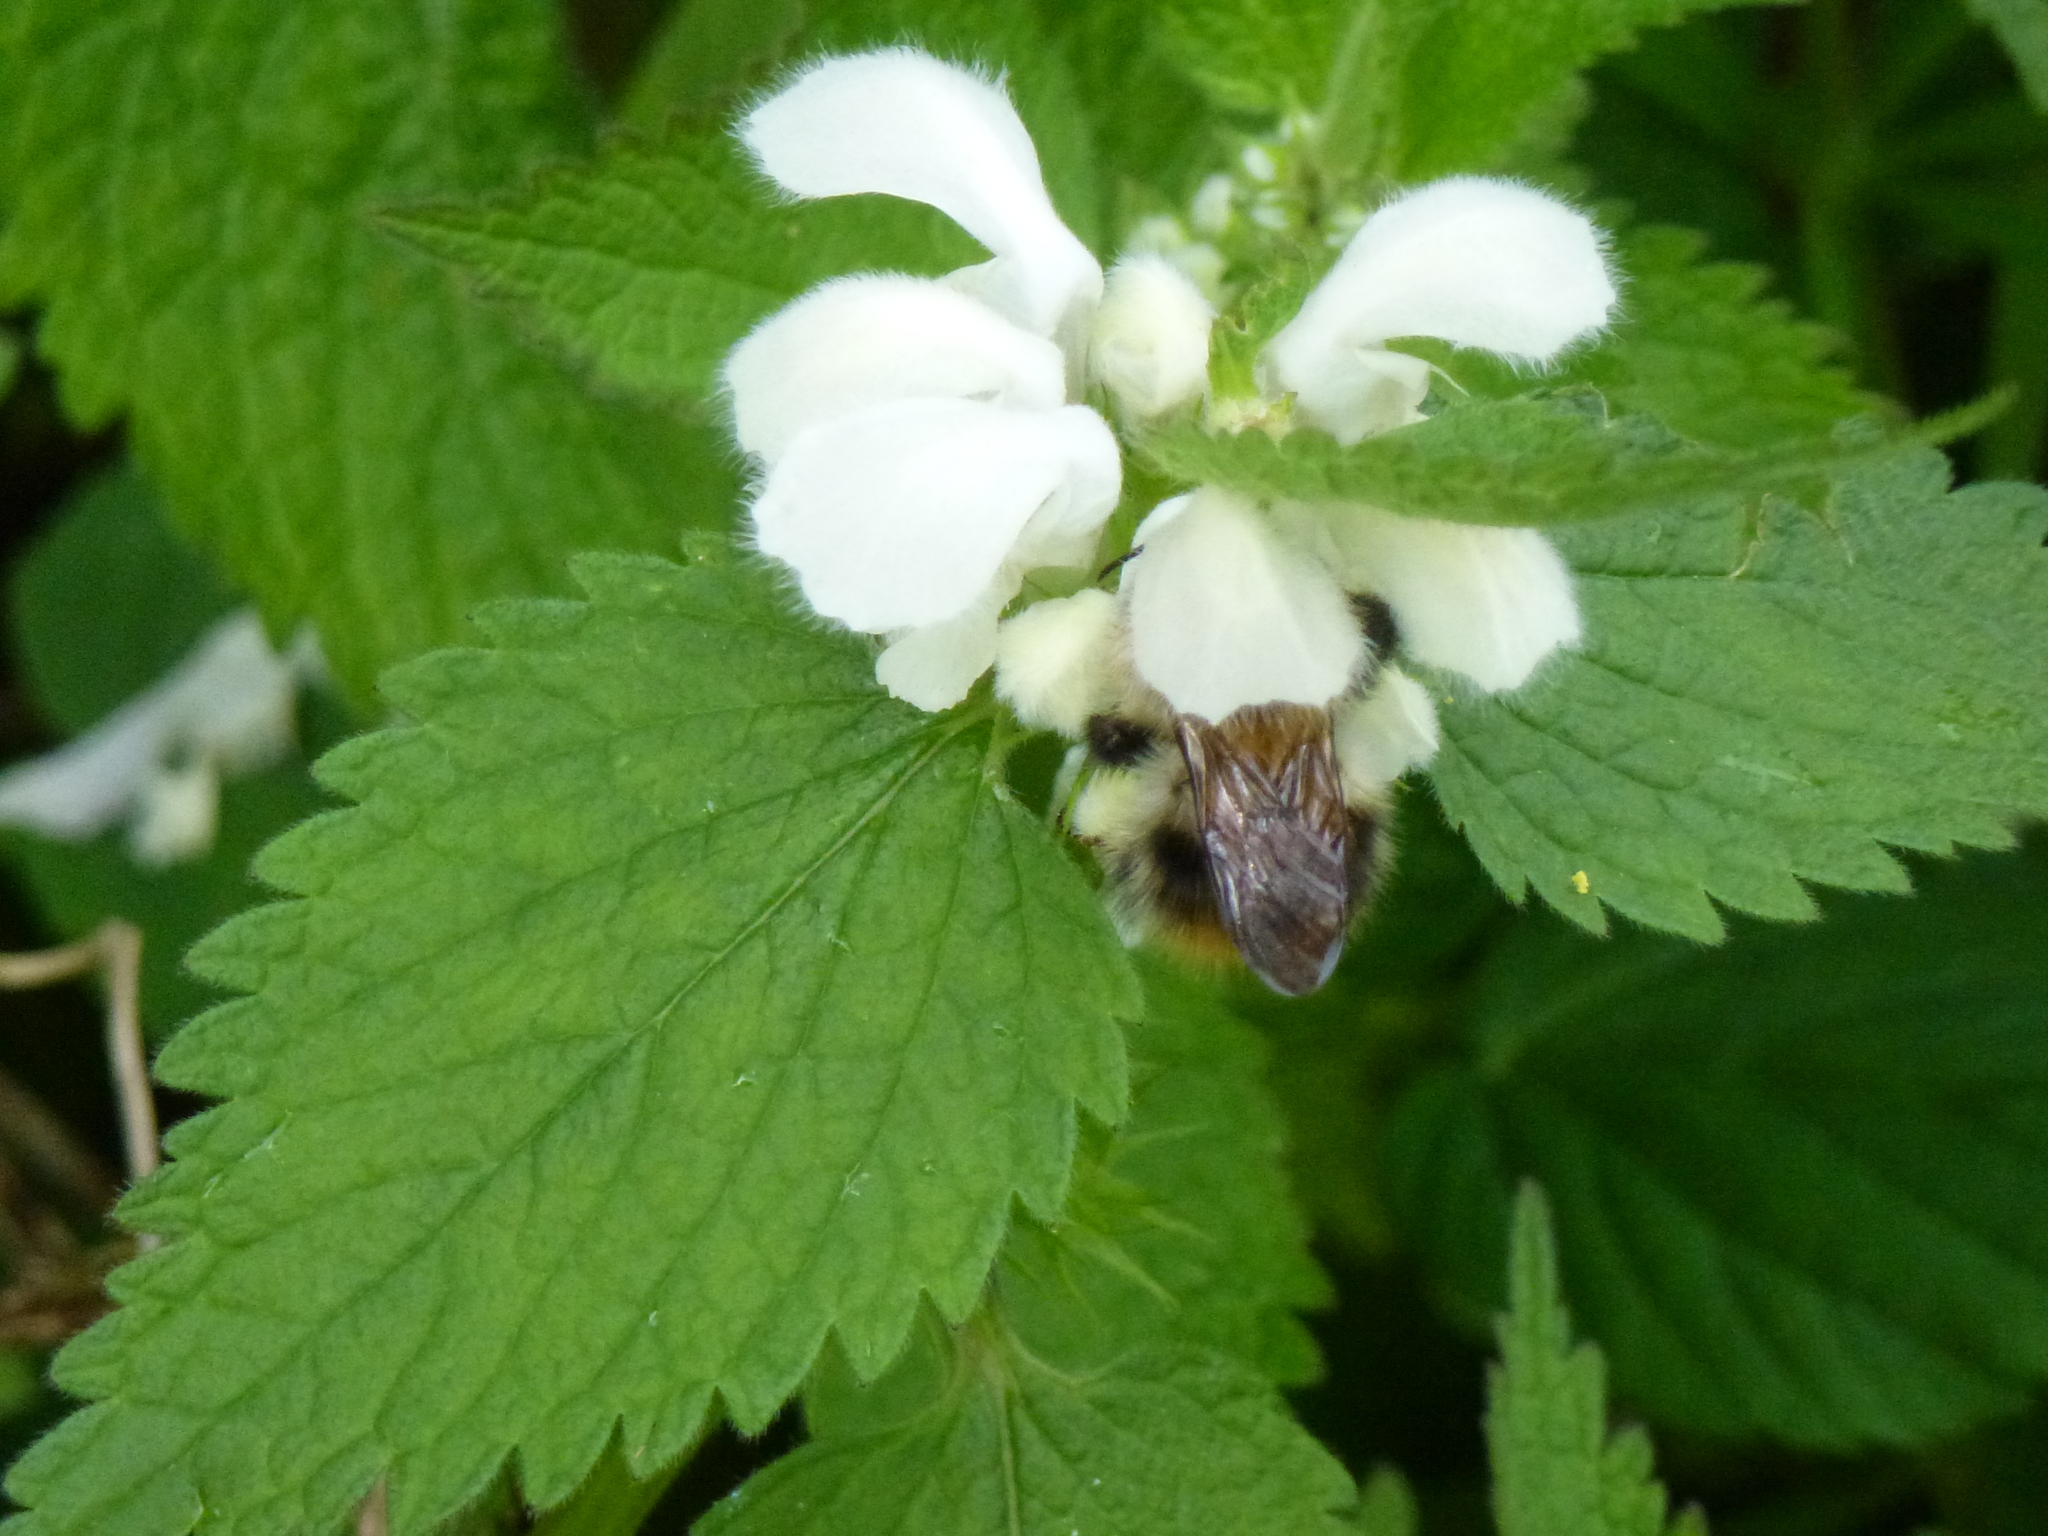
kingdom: Animalia
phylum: Arthropoda
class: Insecta
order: Hymenoptera
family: Apidae
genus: Bombus
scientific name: Bombus pascuorum
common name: Common carder bee
